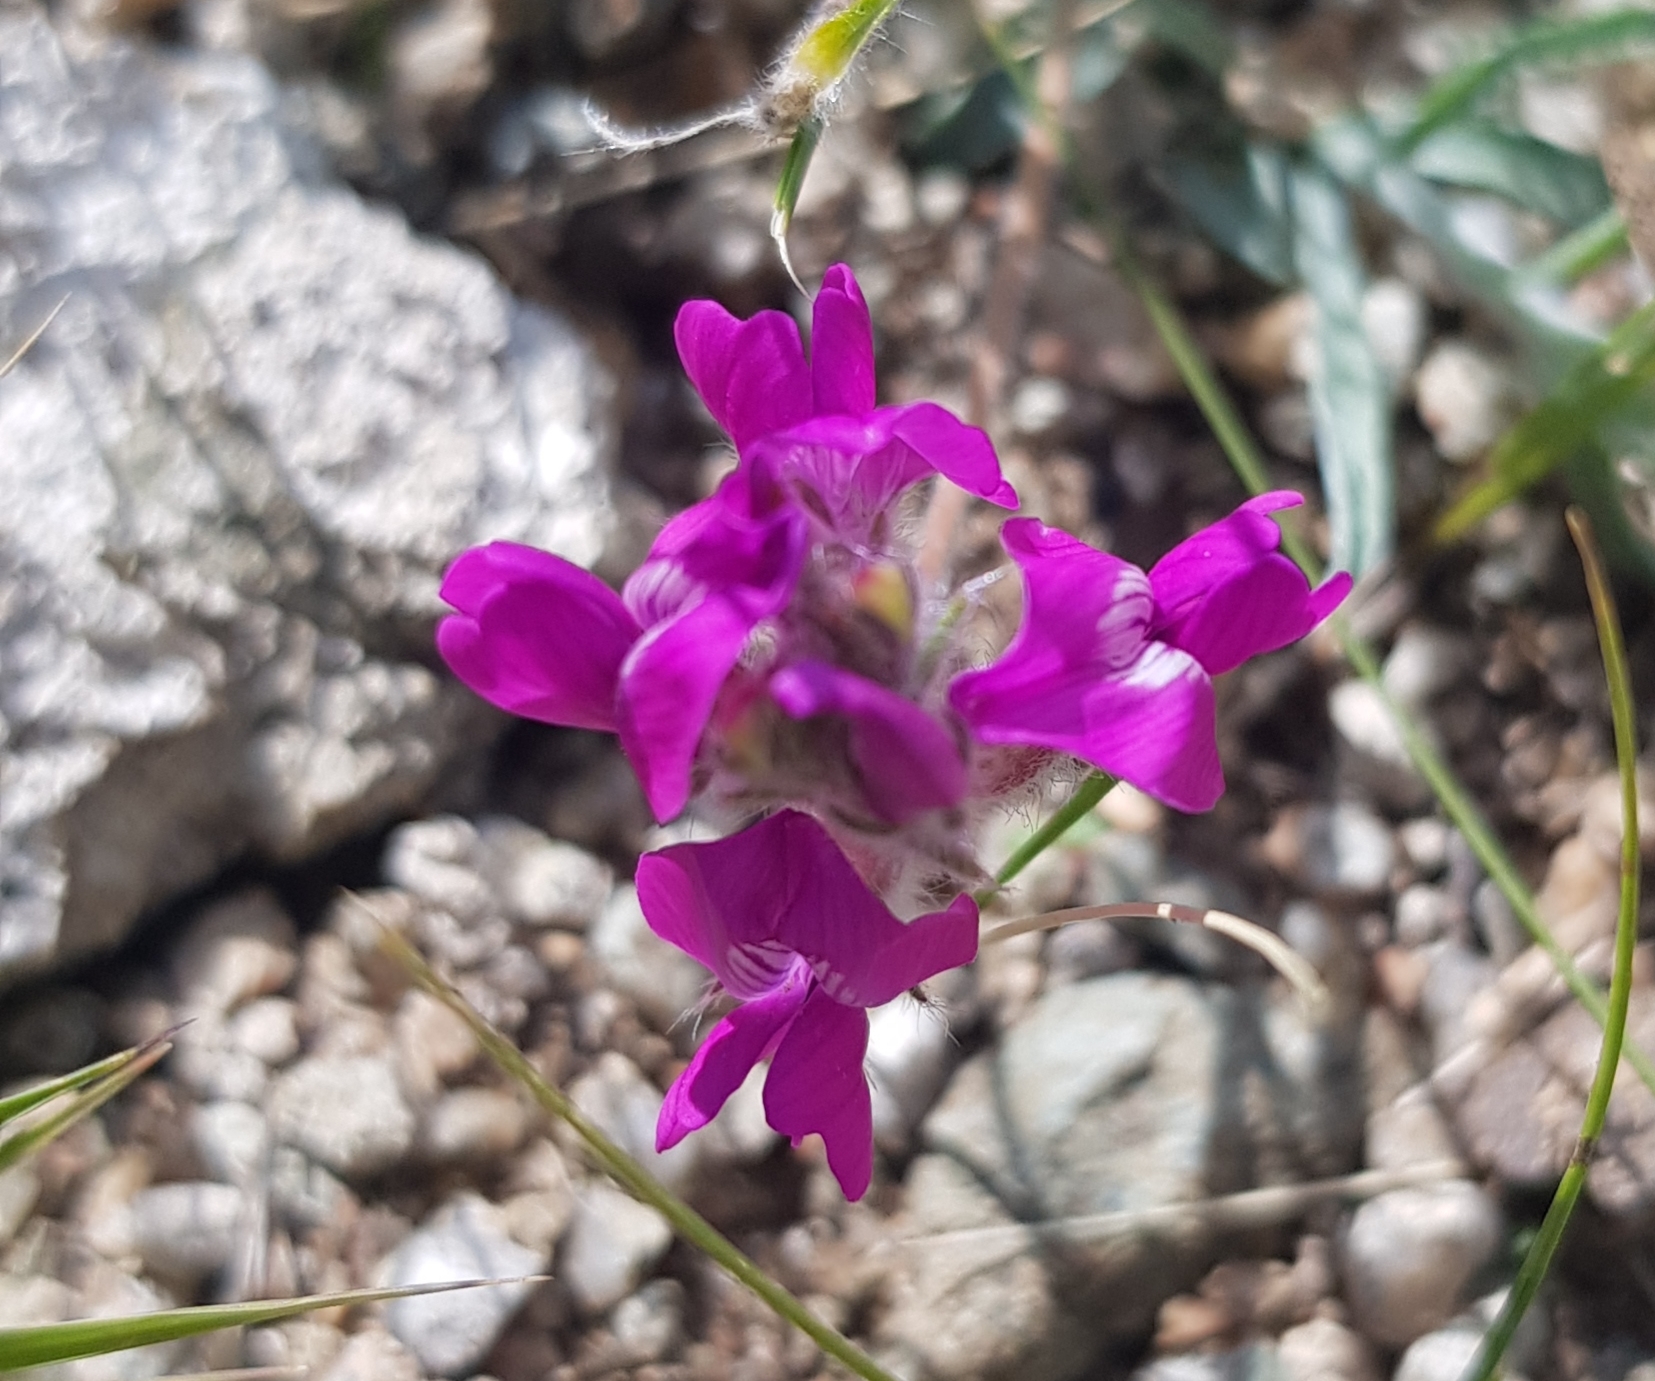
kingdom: Plantae
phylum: Tracheophyta
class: Magnoliopsida
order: Fabales
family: Fabaceae
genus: Oxytropis
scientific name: Oxytropis coerulea
